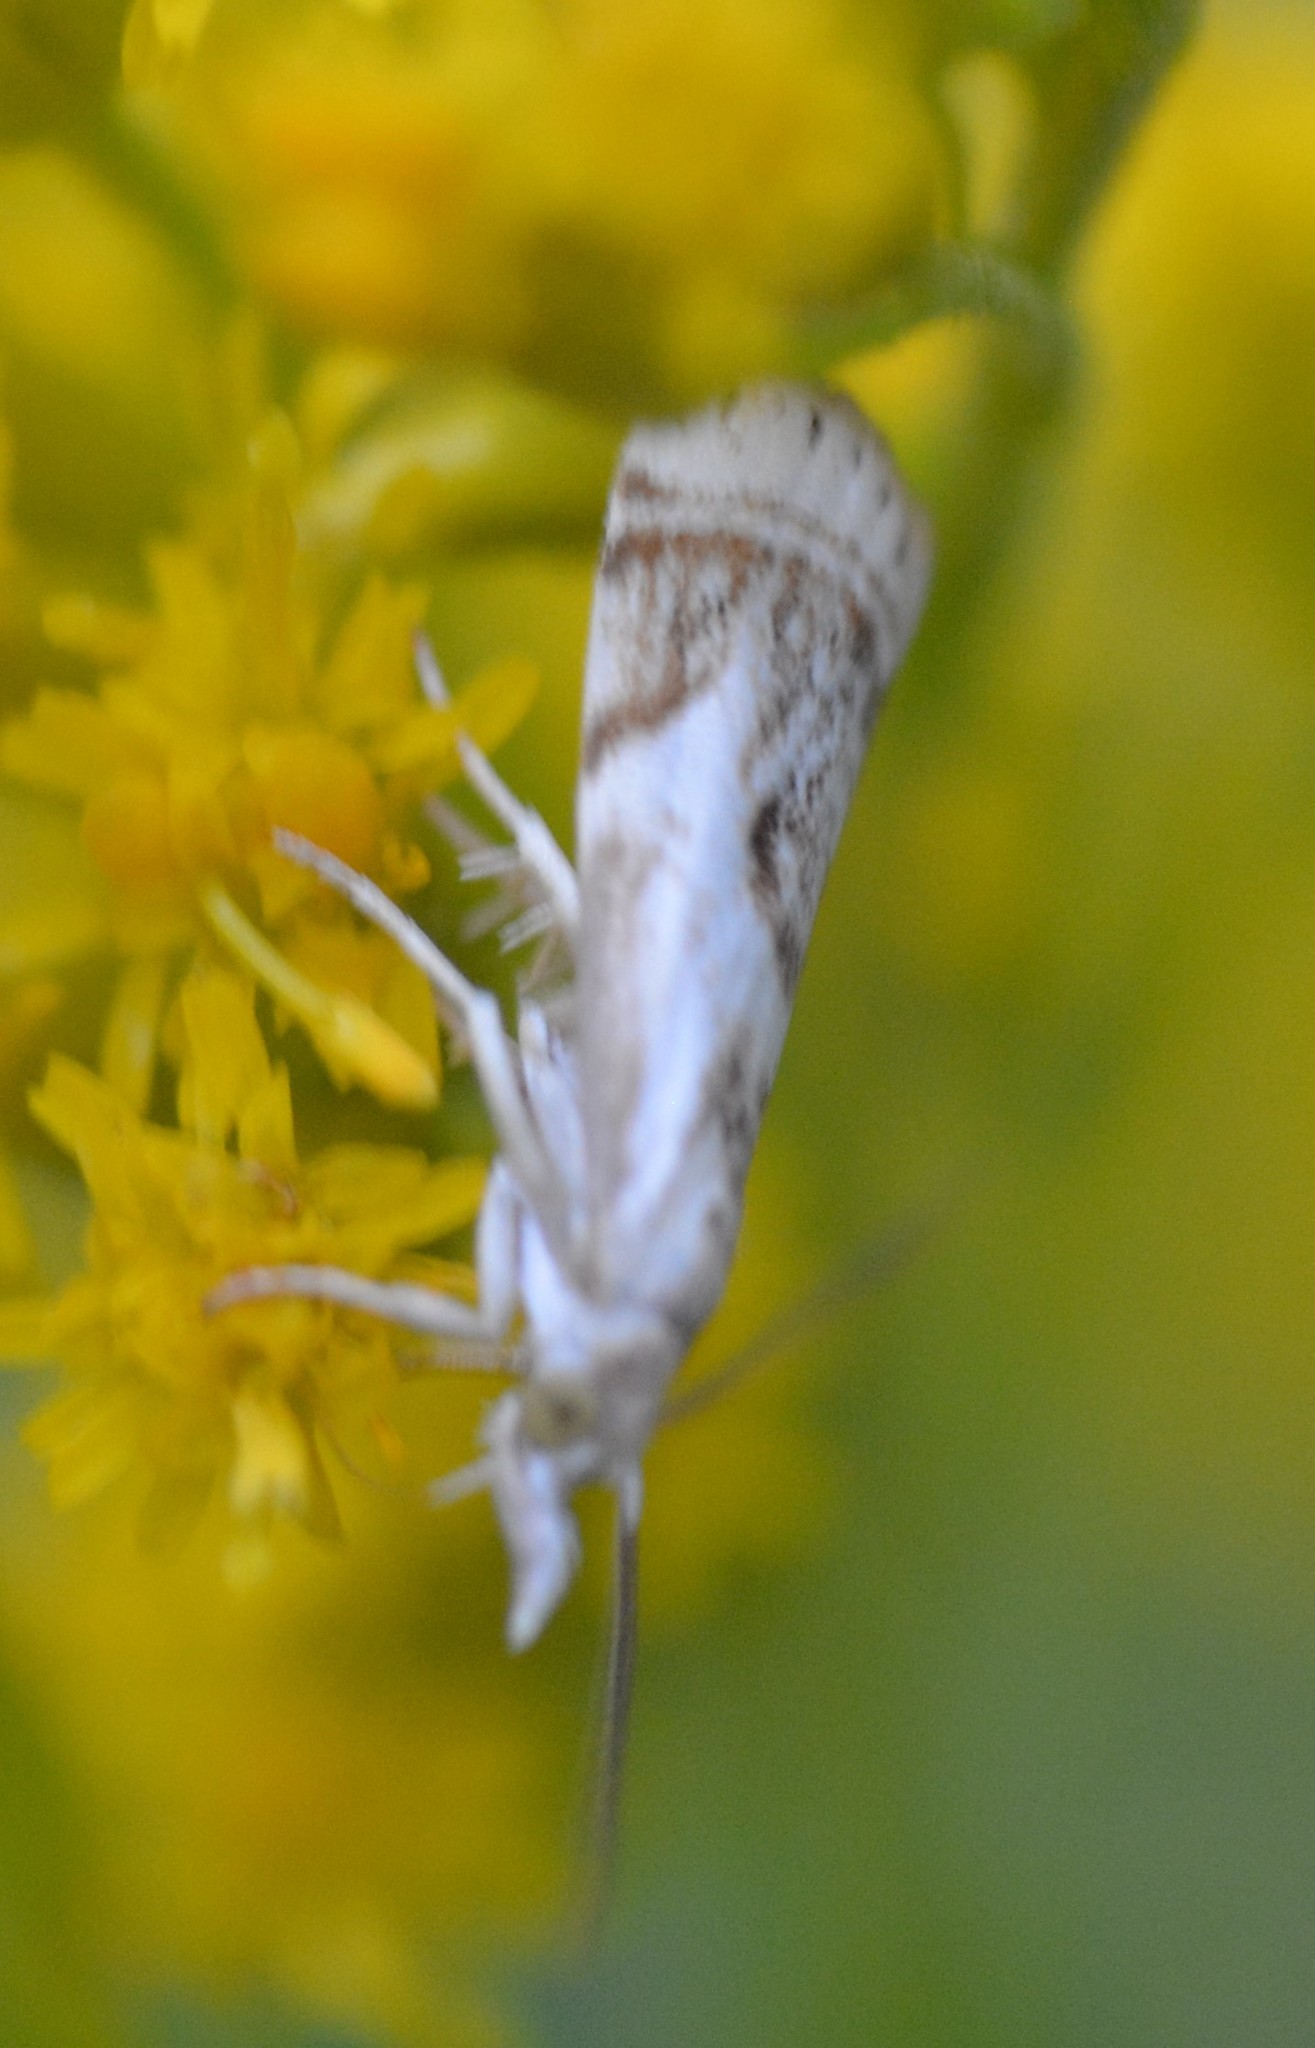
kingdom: Animalia
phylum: Arthropoda
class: Insecta
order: Lepidoptera
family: Crambidae
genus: Microcrambus
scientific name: Microcrambus elegans
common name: Elegant grass-veneer
